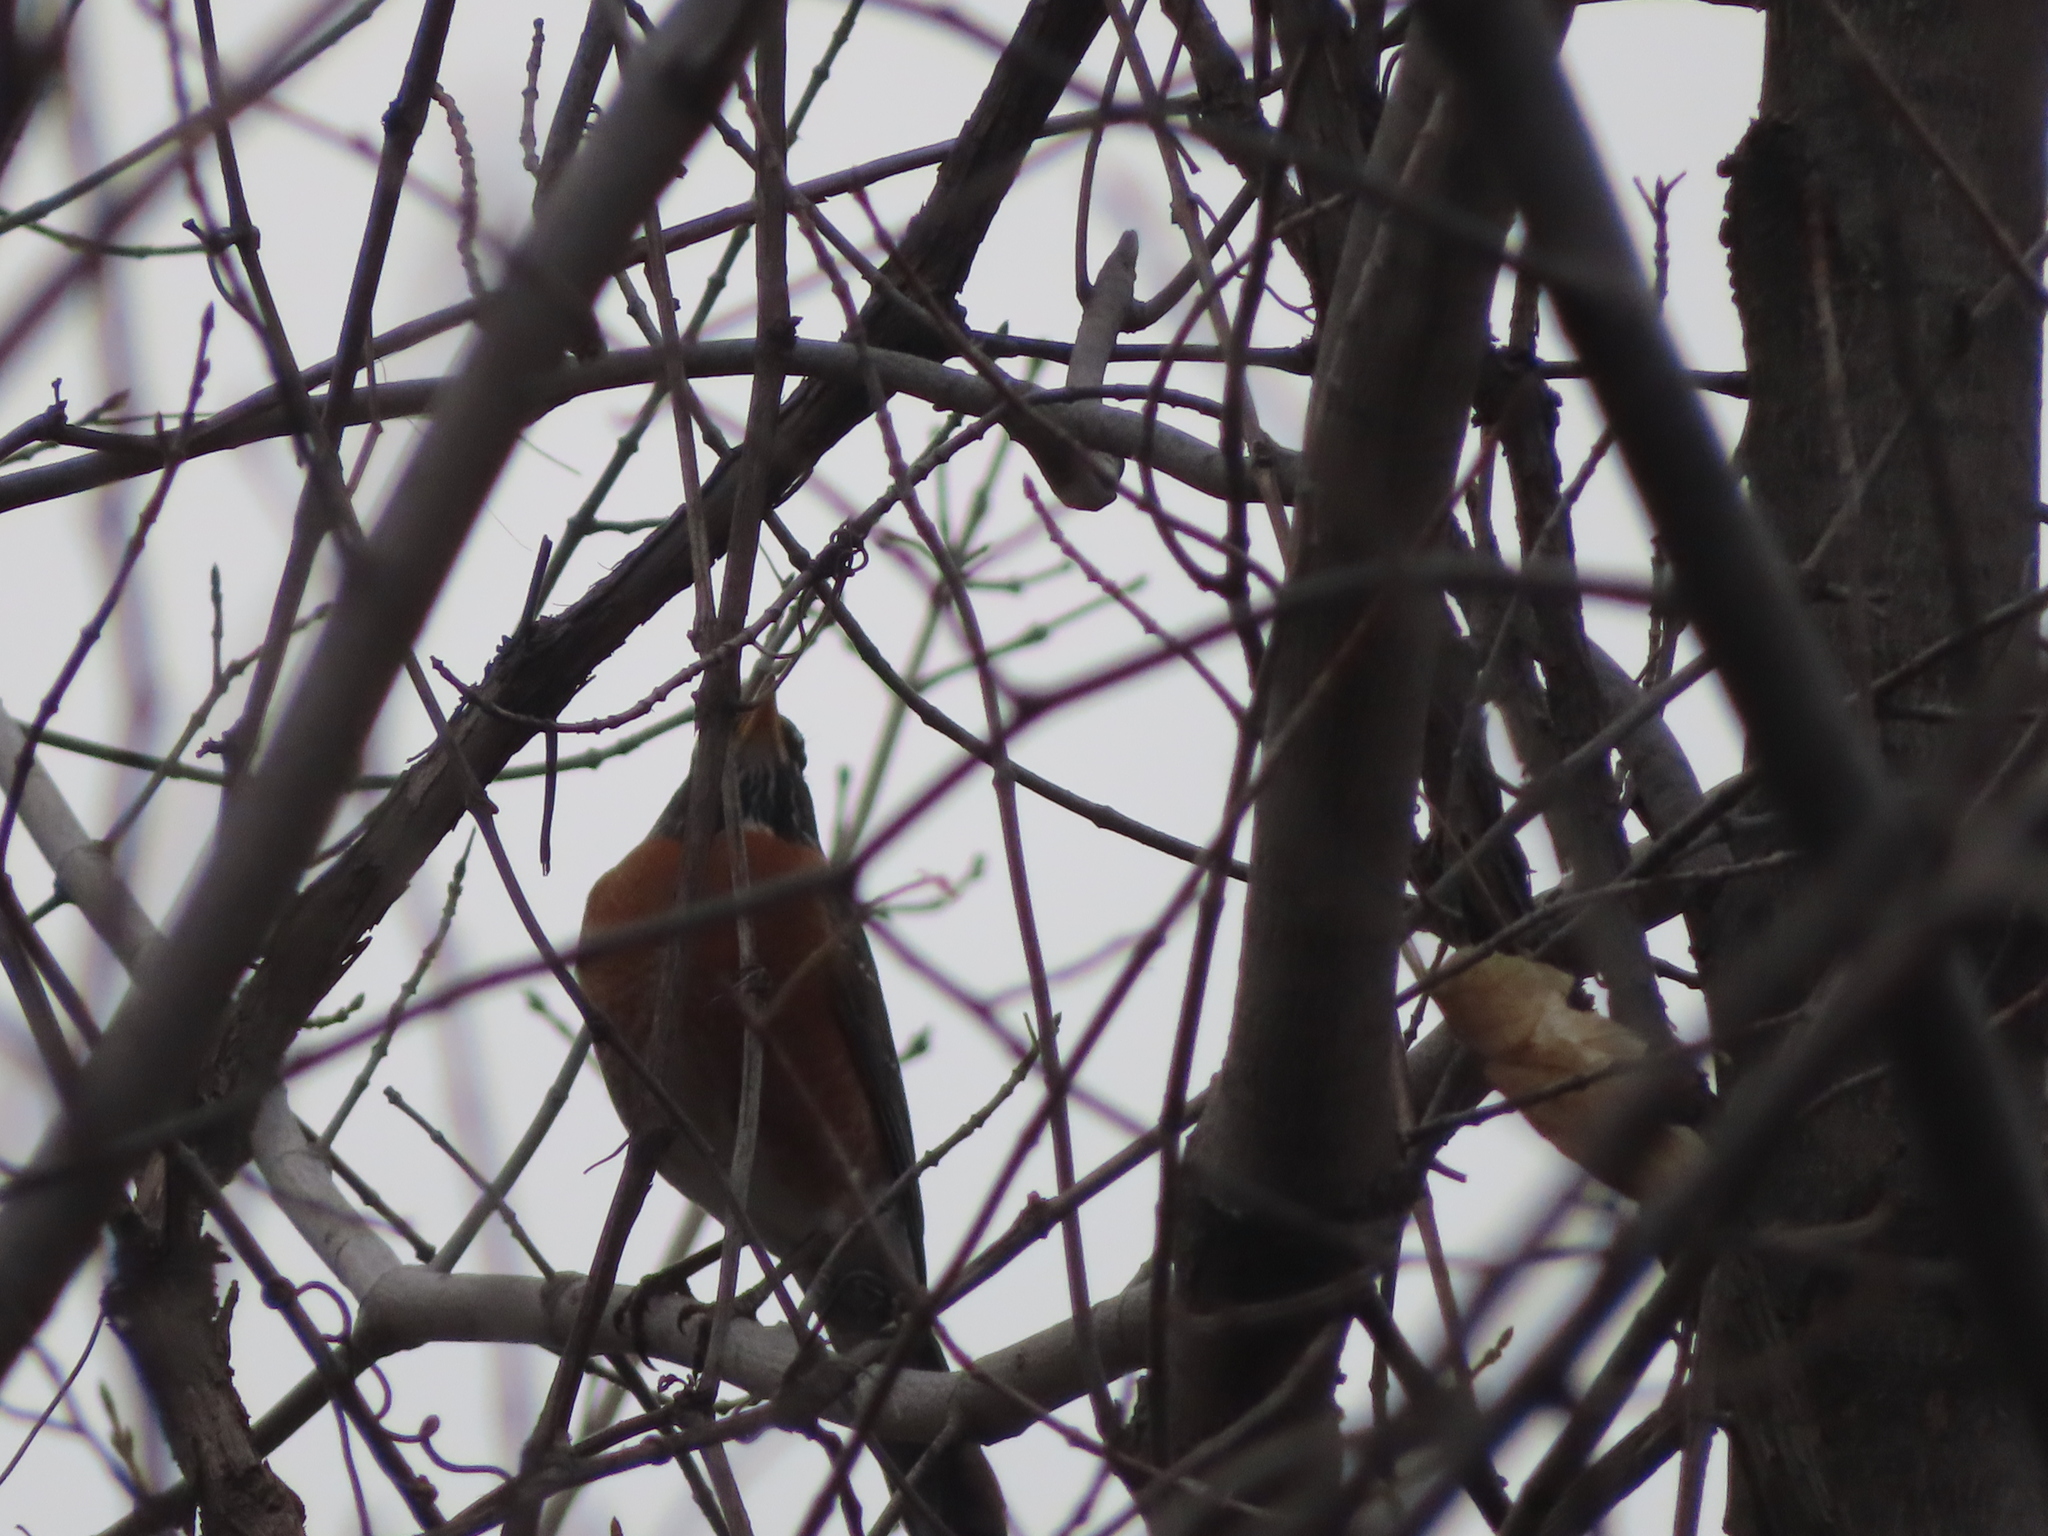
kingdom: Animalia
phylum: Chordata
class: Aves
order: Passeriformes
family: Turdidae
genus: Turdus
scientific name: Turdus migratorius
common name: American robin
